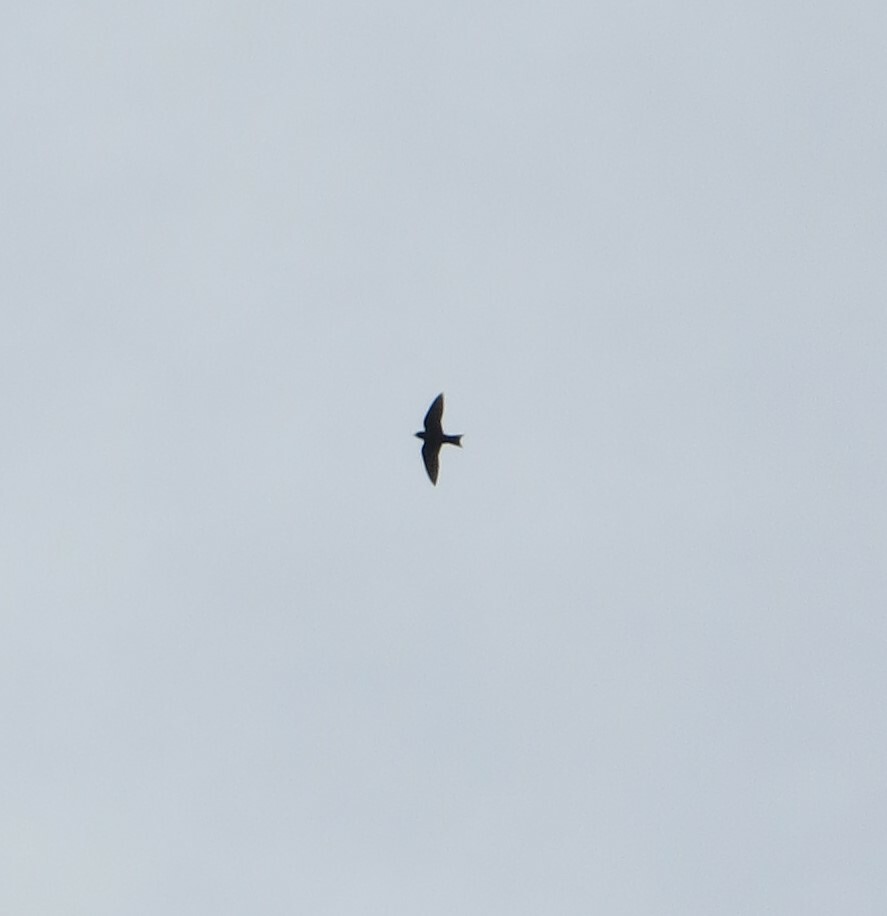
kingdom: Animalia
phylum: Chordata
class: Aves
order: Passeriformes
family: Hirundinidae
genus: Progne
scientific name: Progne subis
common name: Purple martin
